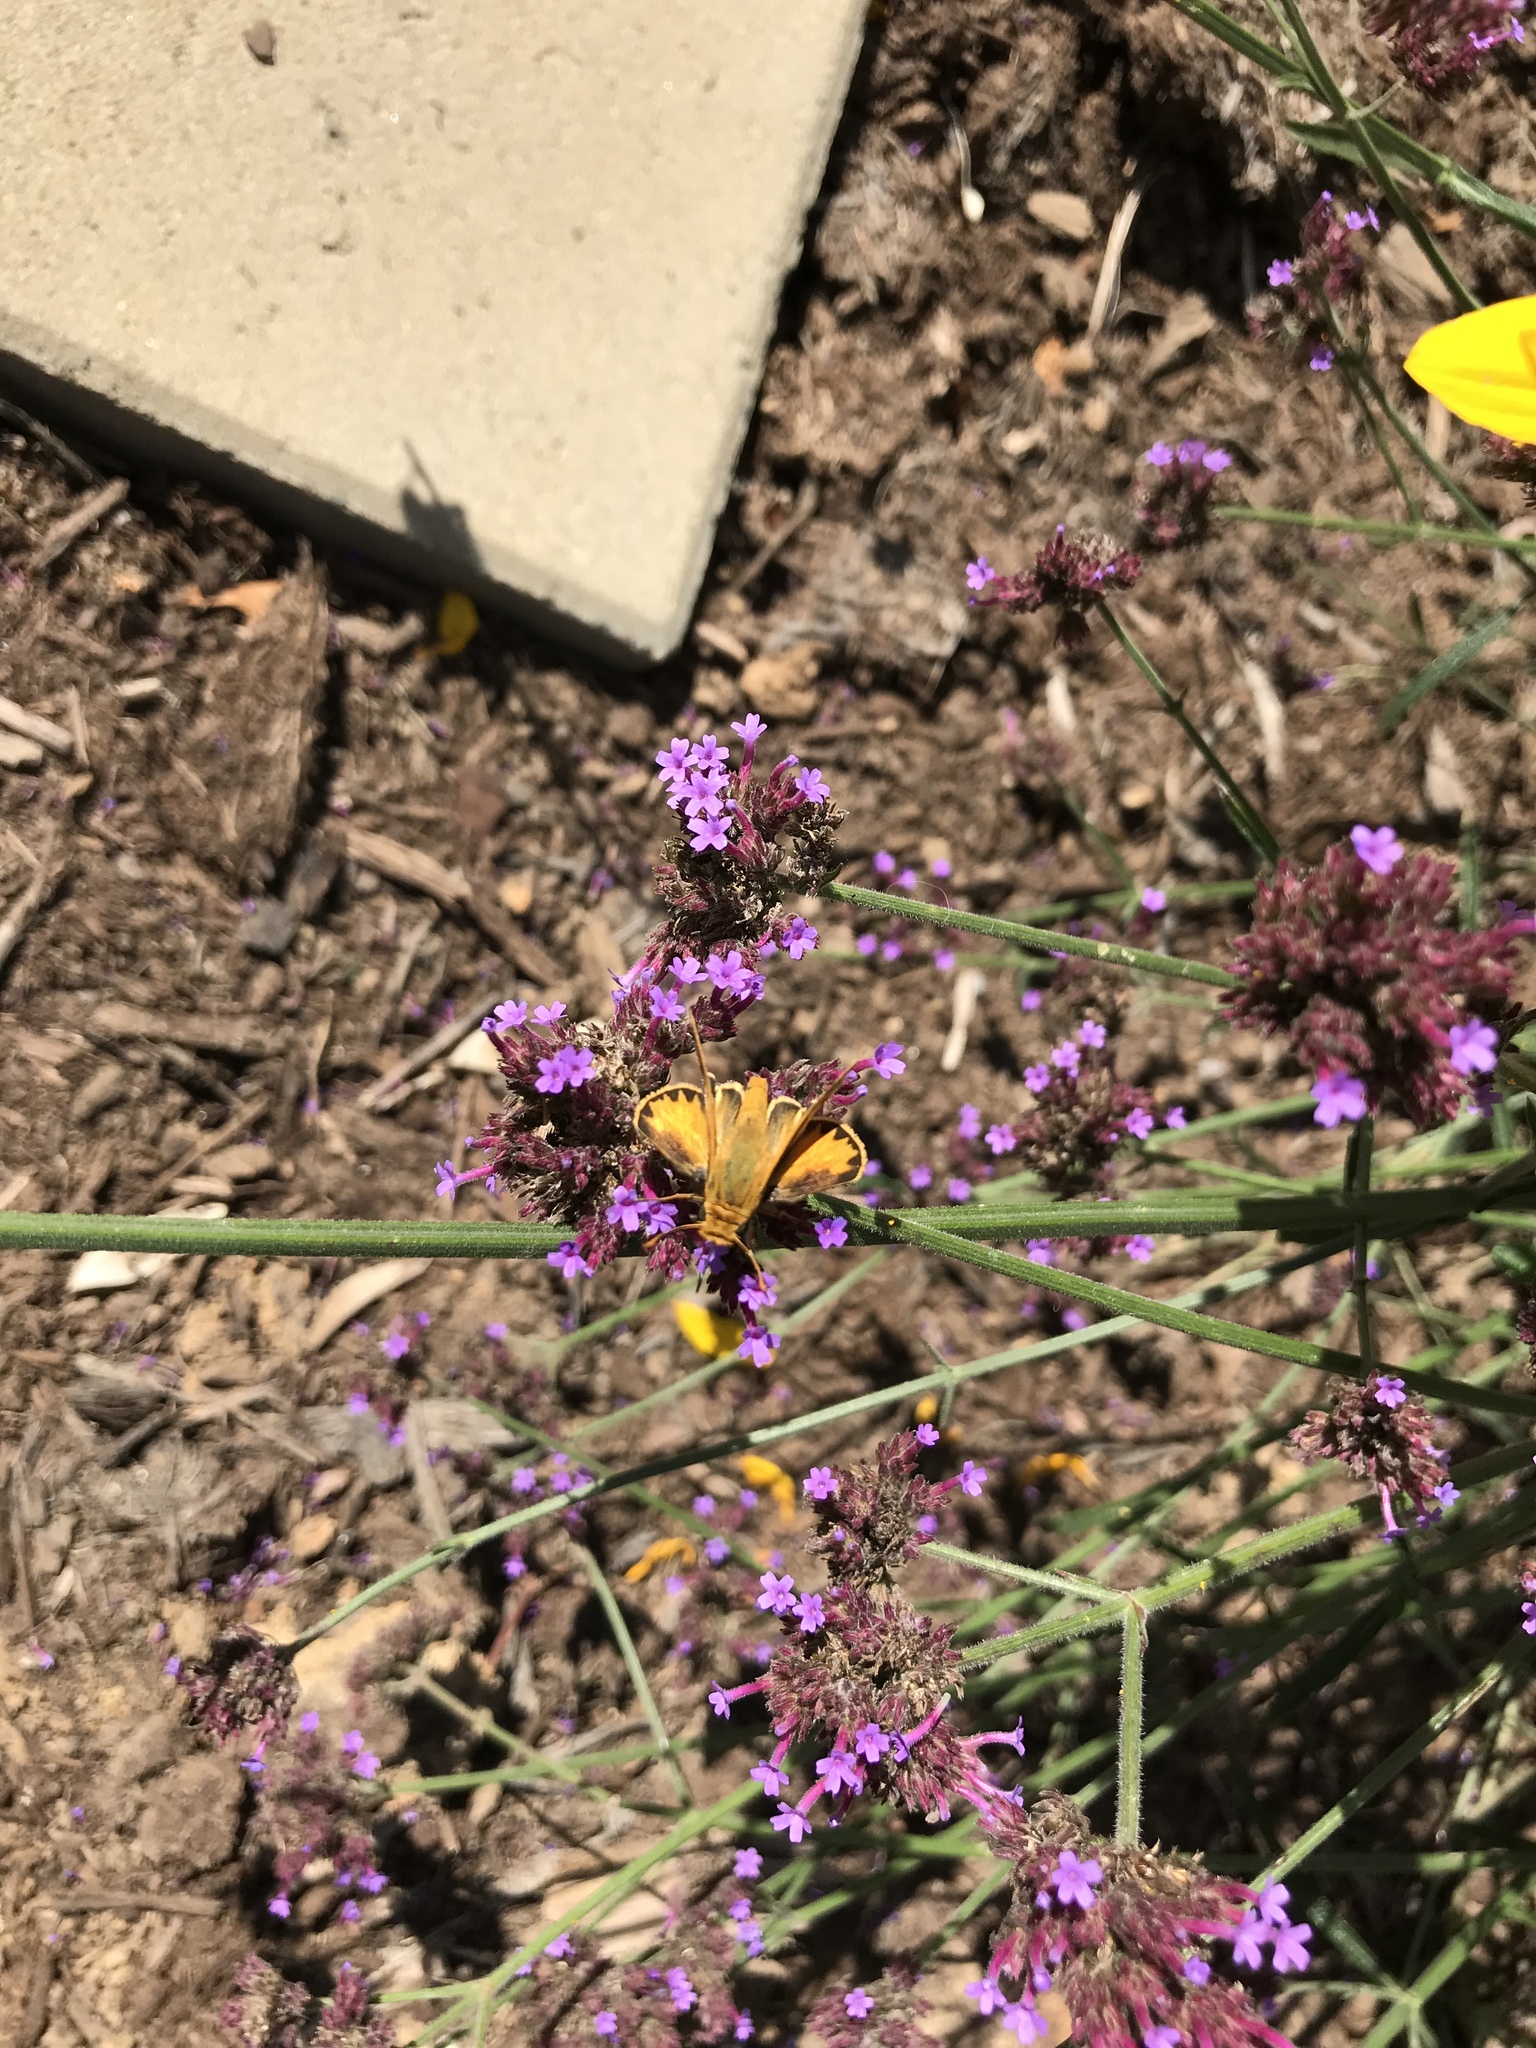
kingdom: Animalia
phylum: Arthropoda
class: Insecta
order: Lepidoptera
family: Hesperiidae
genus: Hylephila
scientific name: Hylephila phyleus
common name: Fiery skipper
